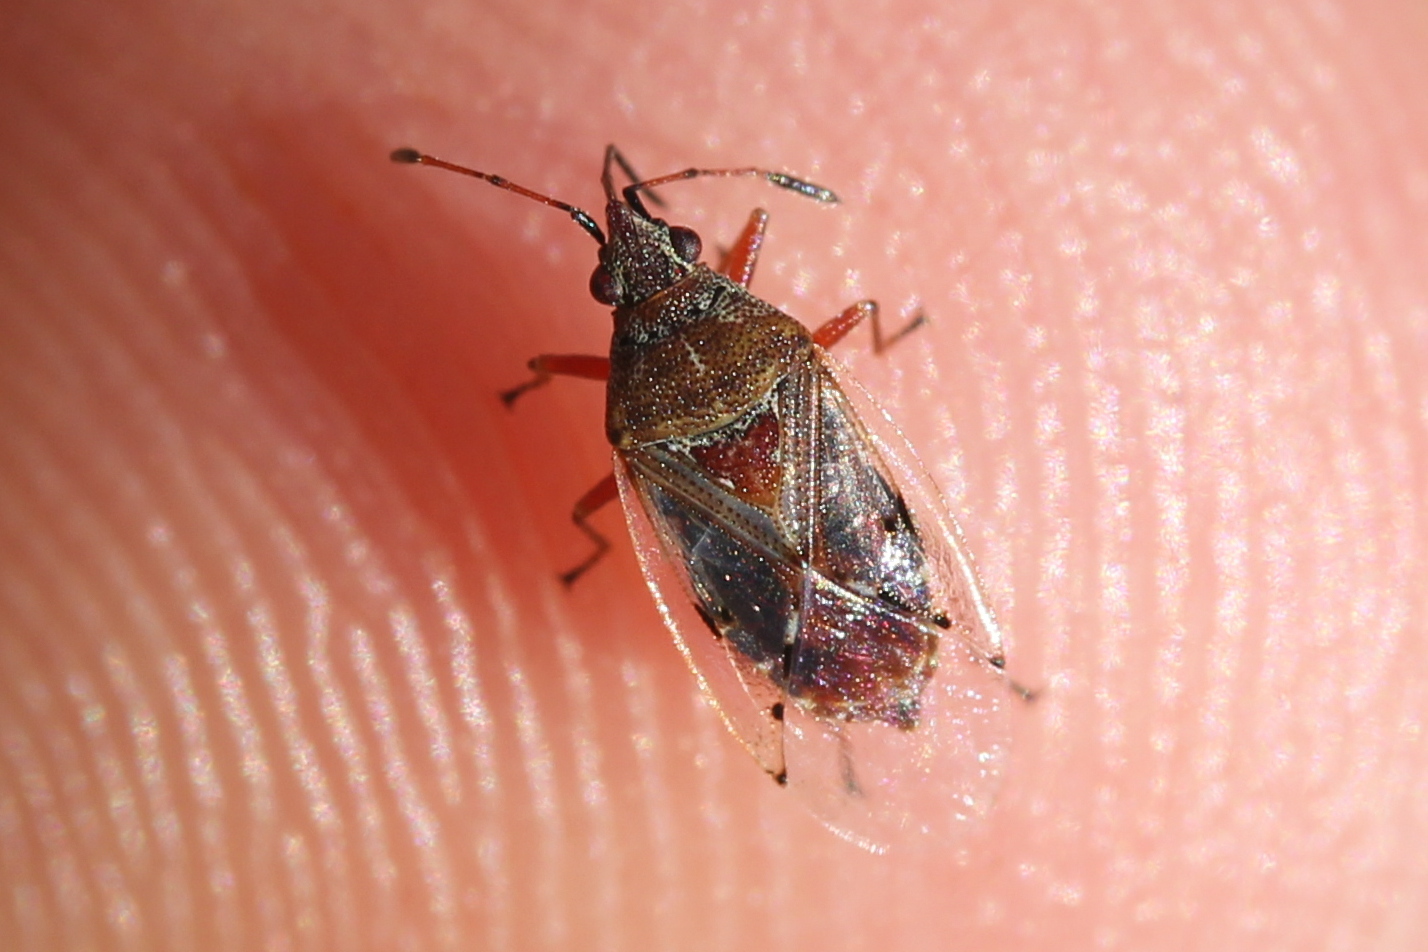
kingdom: Animalia
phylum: Arthropoda
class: Insecta
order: Hemiptera
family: Lygaeidae
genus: Kleidocerys
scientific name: Kleidocerys resedae
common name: Birch catkin bug
